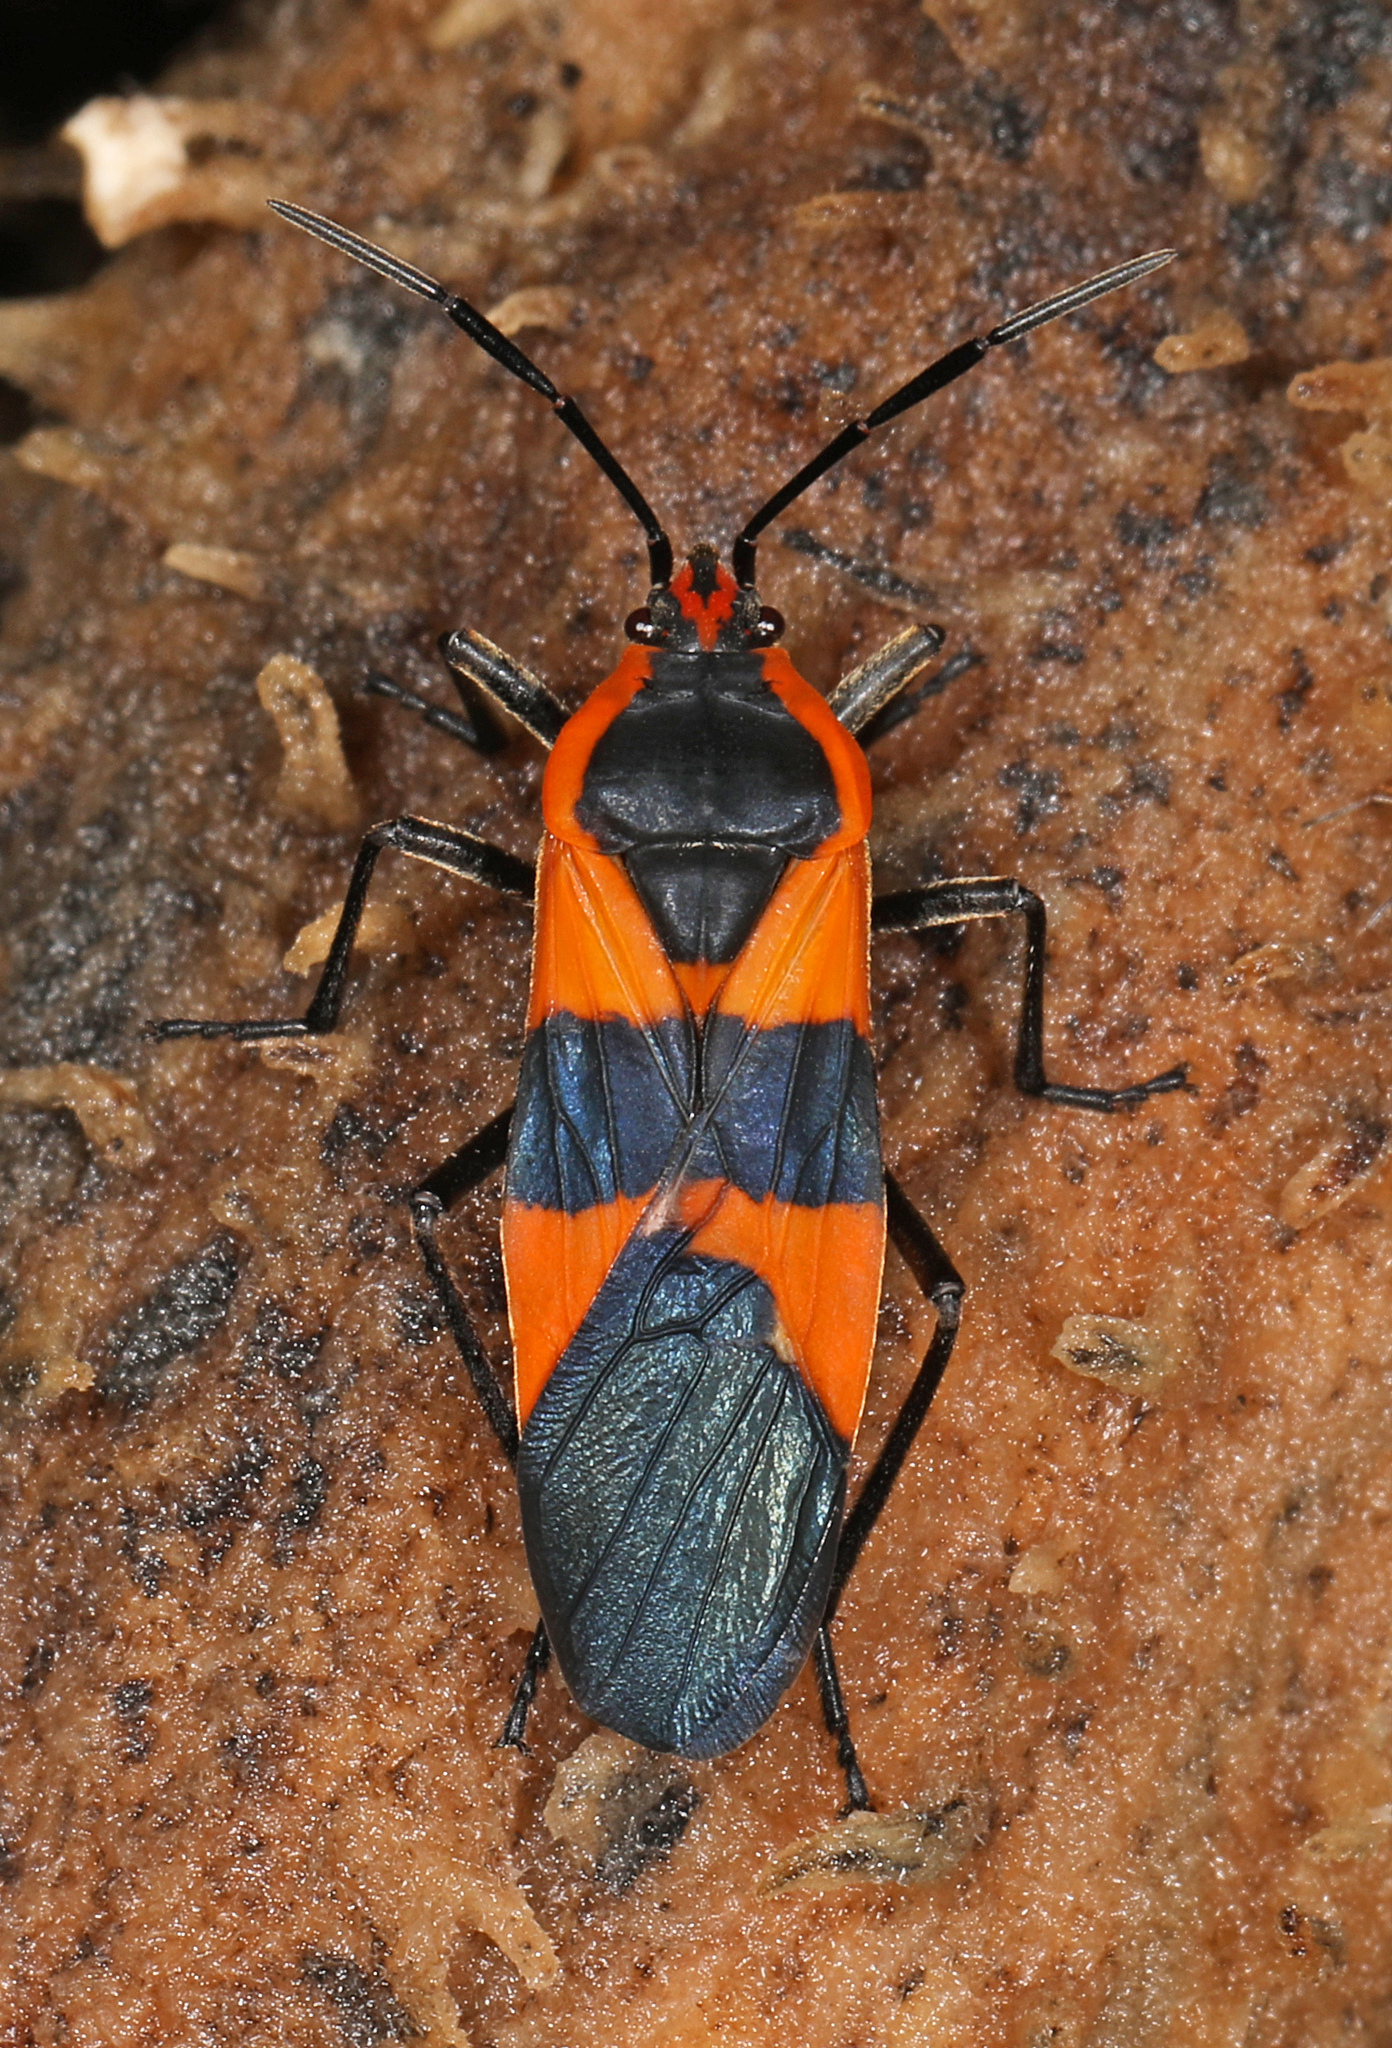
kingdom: Animalia
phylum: Arthropoda
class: Insecta
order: Hemiptera
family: Lygaeidae
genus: Oncopeltus
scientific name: Oncopeltus fasciatus
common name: Large milkweed bug
